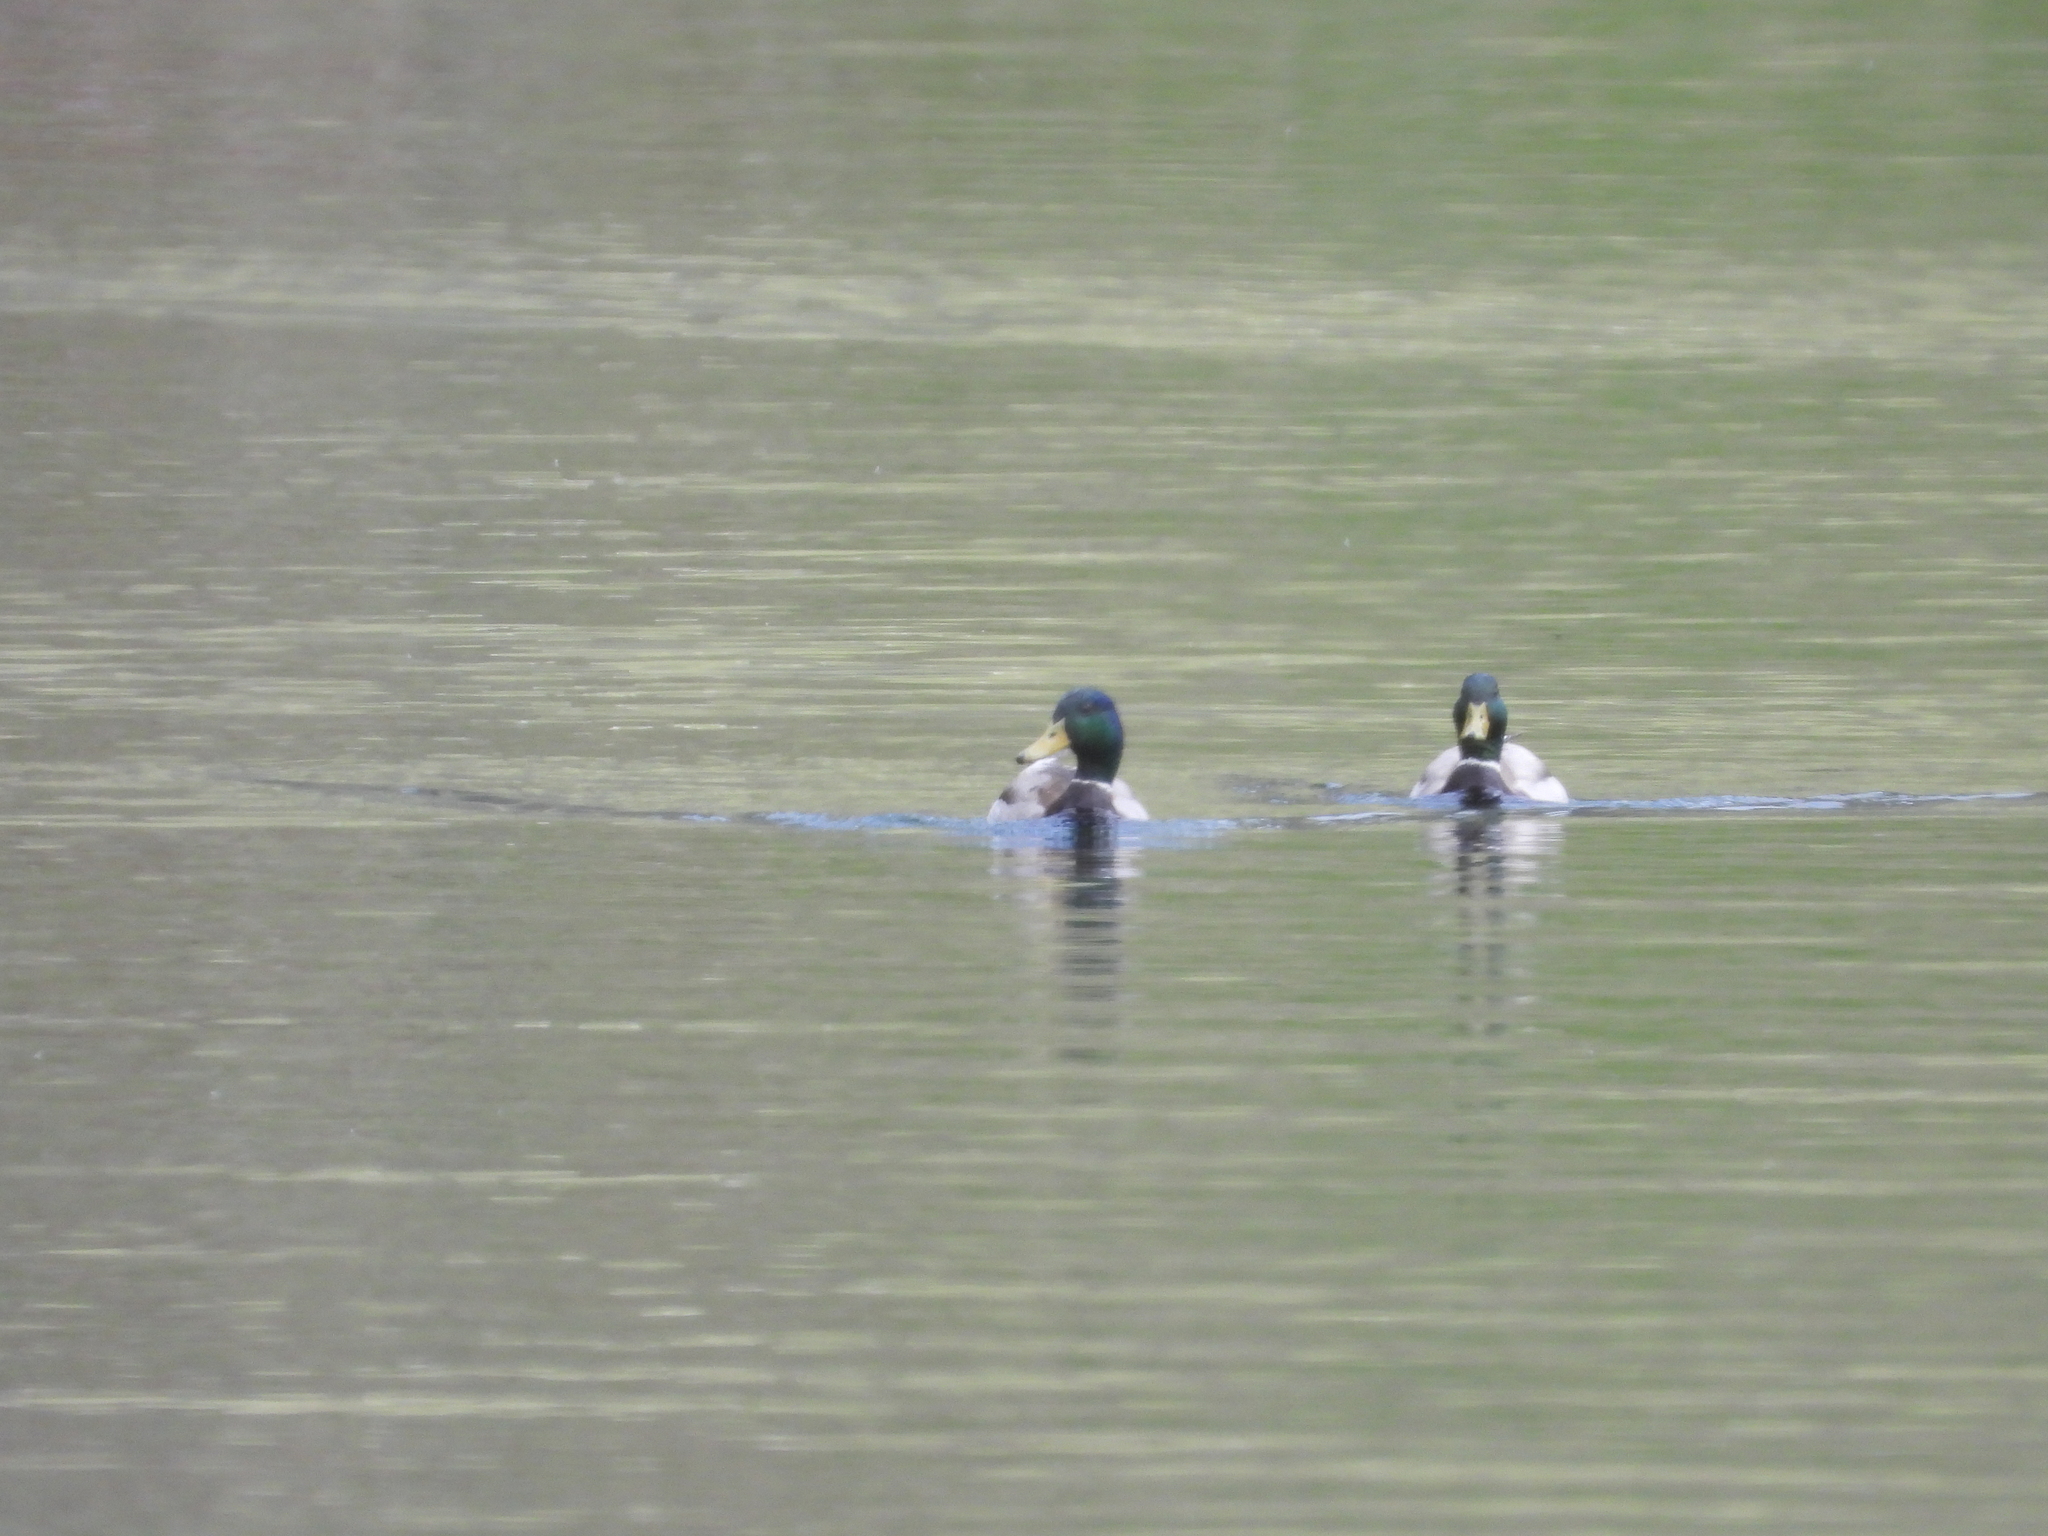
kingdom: Animalia
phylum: Chordata
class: Aves
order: Anseriformes
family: Anatidae
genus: Anas
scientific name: Anas platyrhynchos
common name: Mallard
